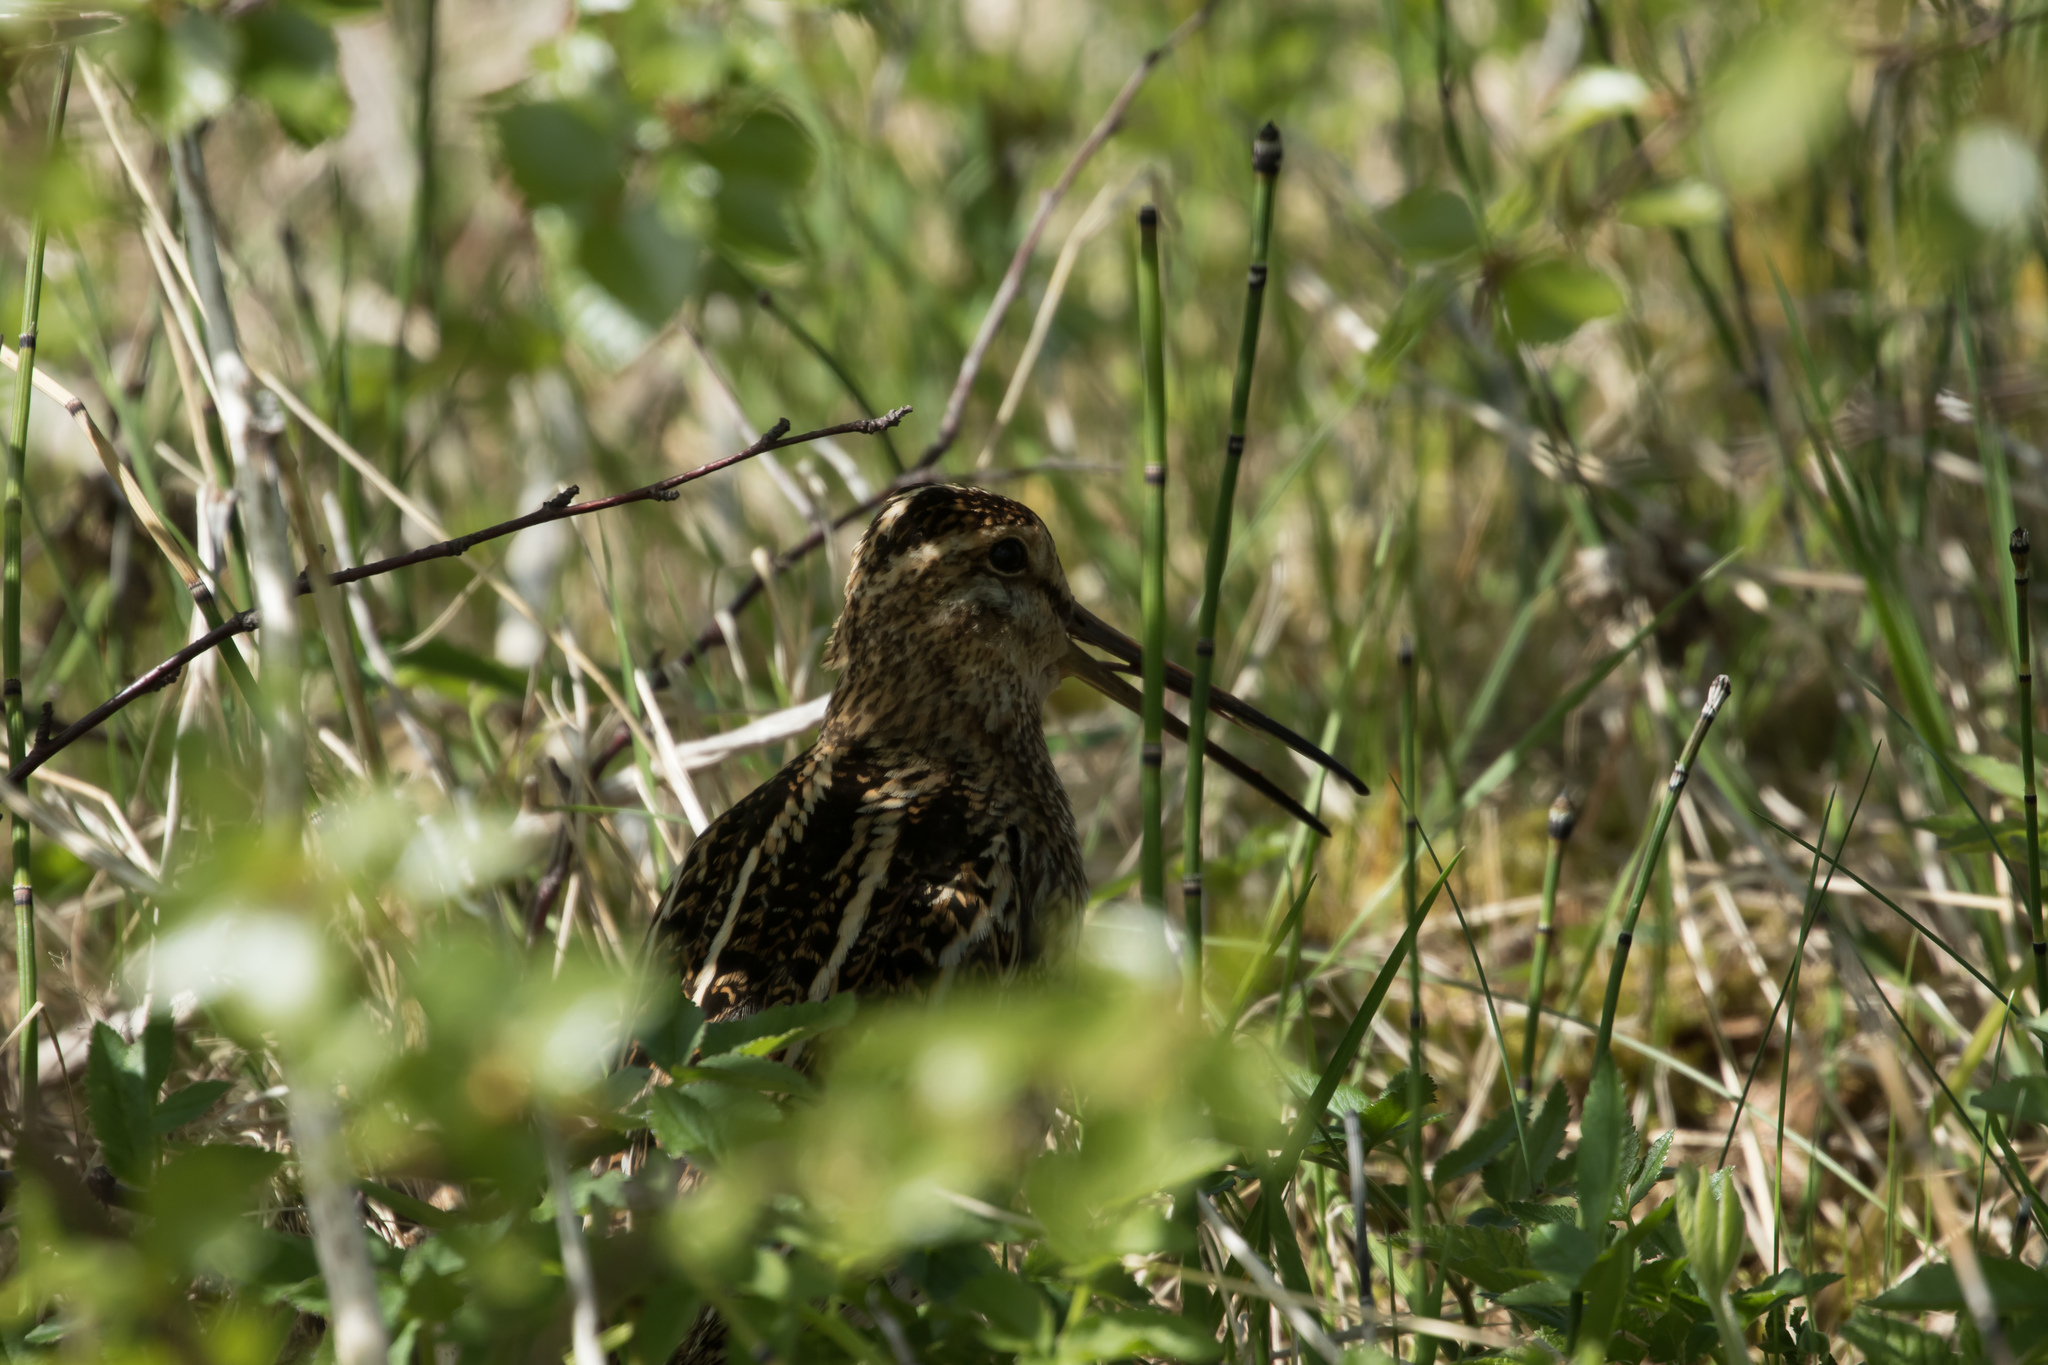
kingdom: Animalia
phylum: Chordata
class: Aves
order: Charadriiformes
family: Scolopacidae
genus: Gallinago
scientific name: Gallinago gallinago
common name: Common snipe
